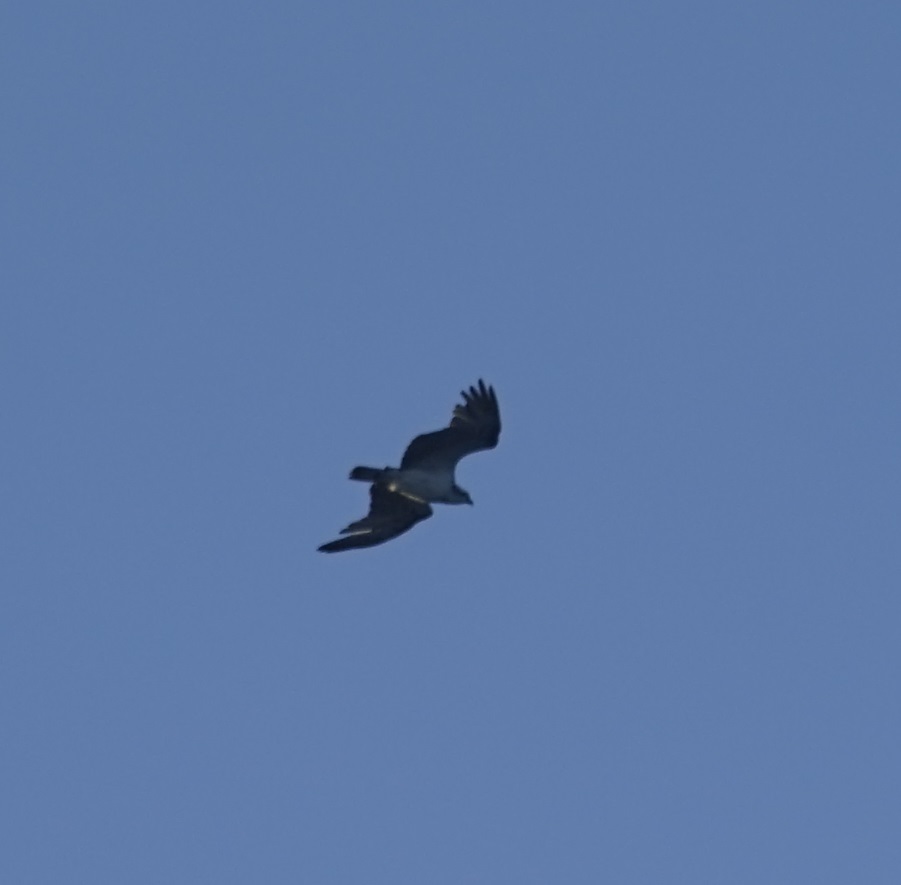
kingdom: Animalia
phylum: Chordata
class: Aves
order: Accipitriformes
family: Pandionidae
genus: Pandion
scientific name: Pandion haliaetus
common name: Osprey
